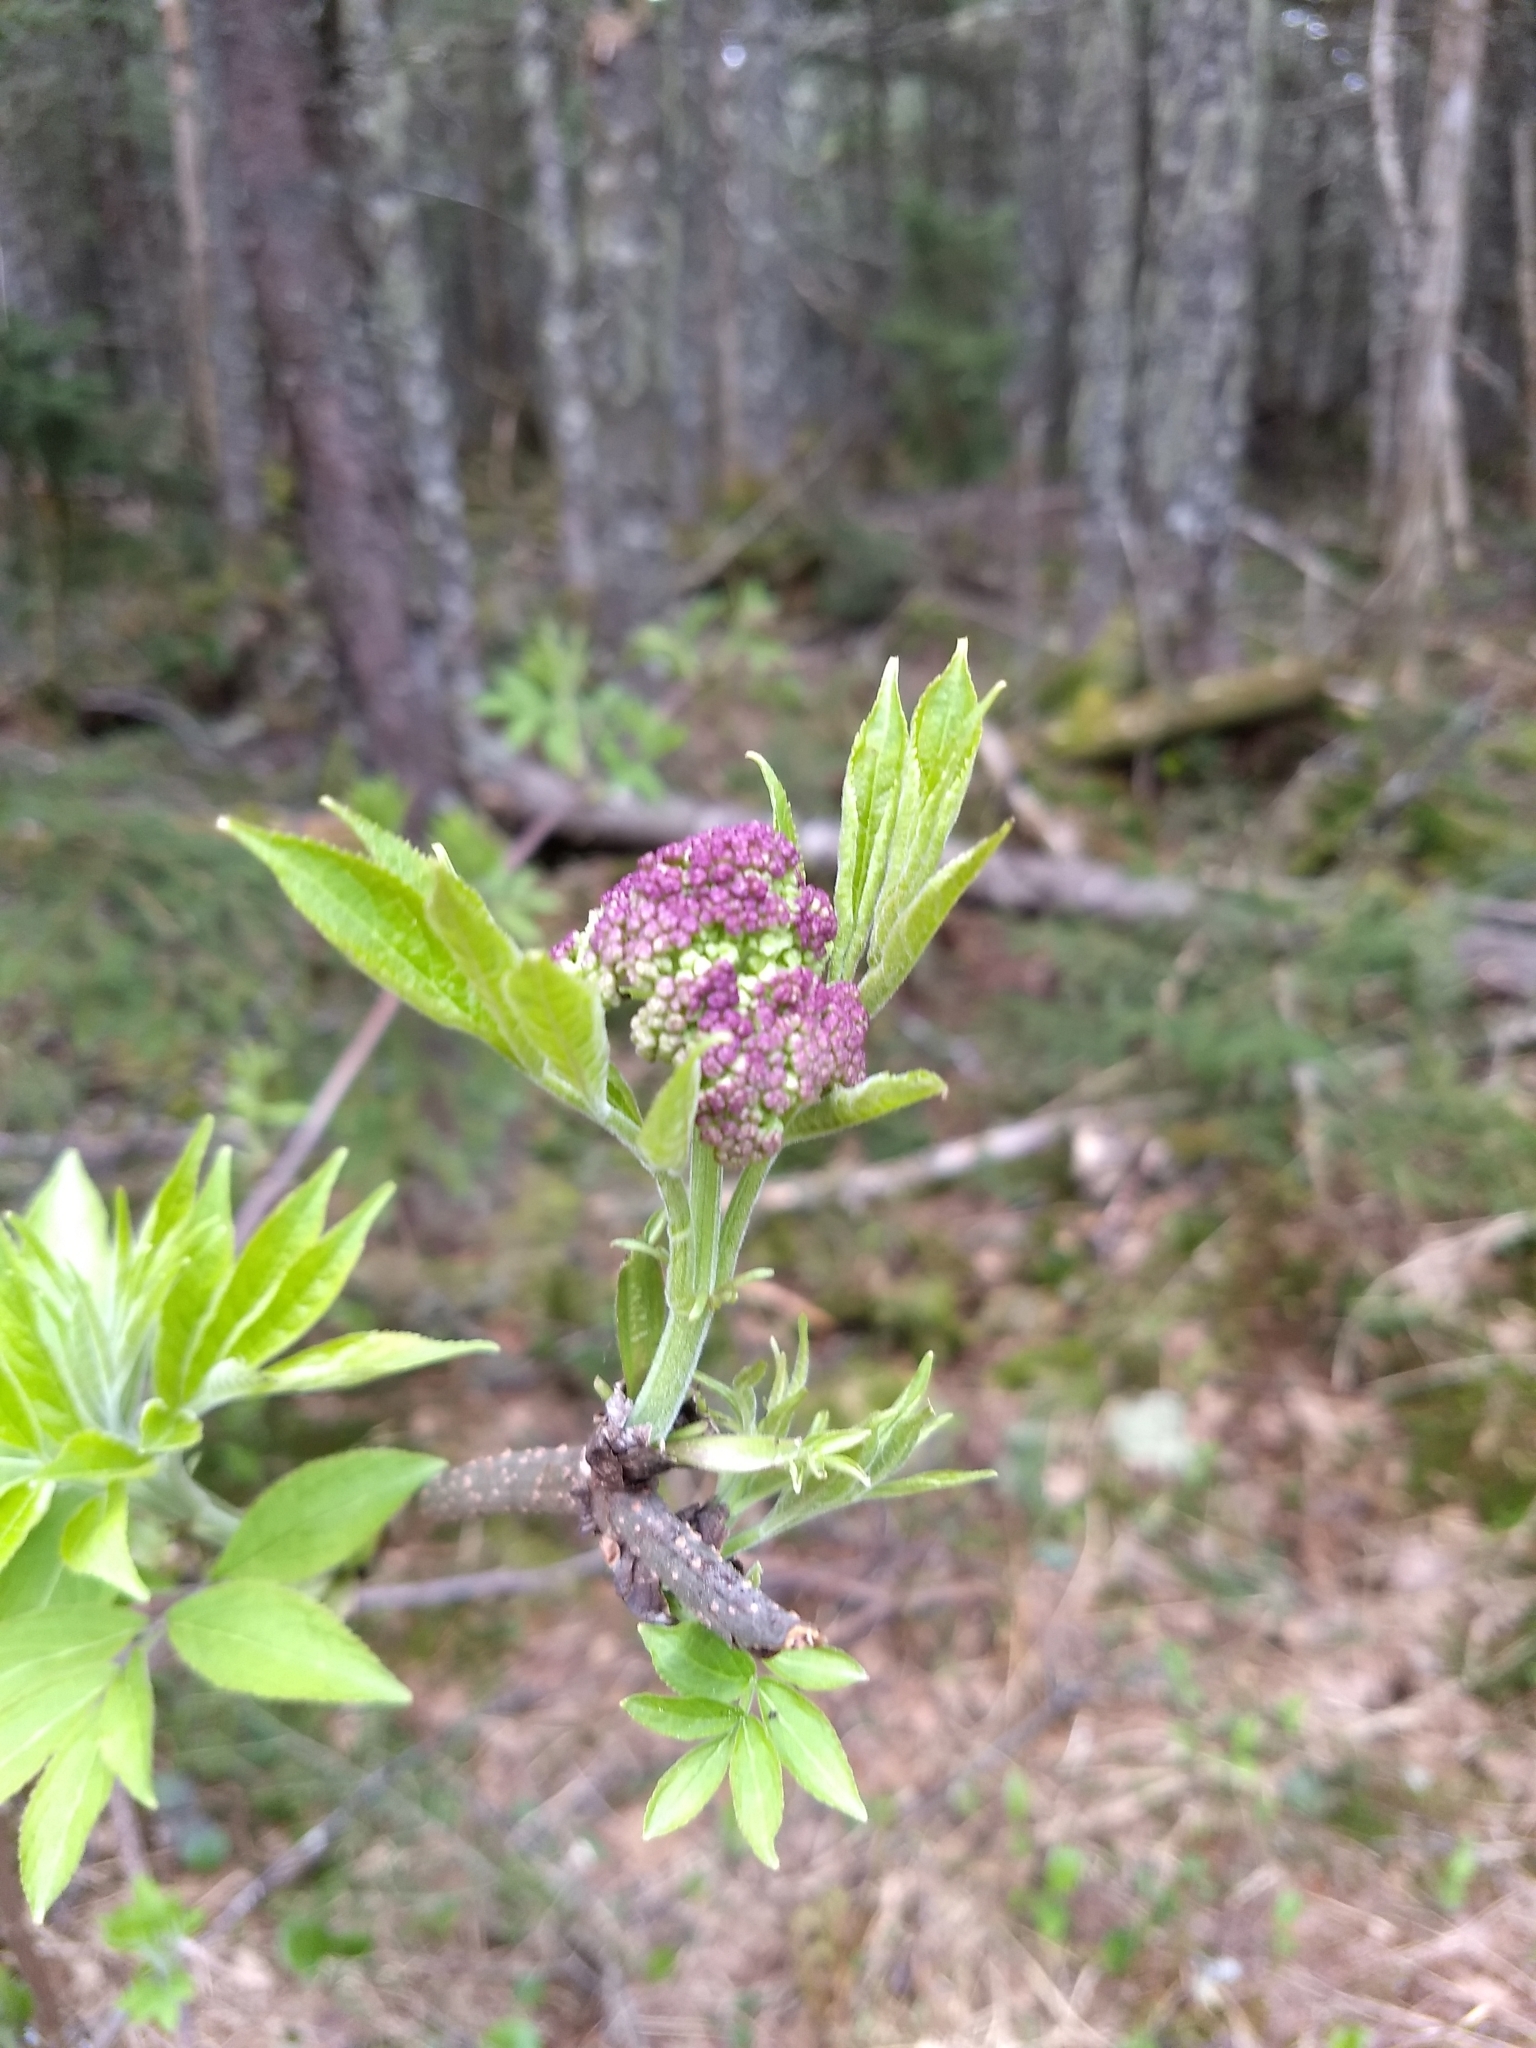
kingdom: Plantae
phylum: Tracheophyta
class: Magnoliopsida
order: Dipsacales
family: Viburnaceae
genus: Sambucus
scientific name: Sambucus racemosa
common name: Red-berried elder
